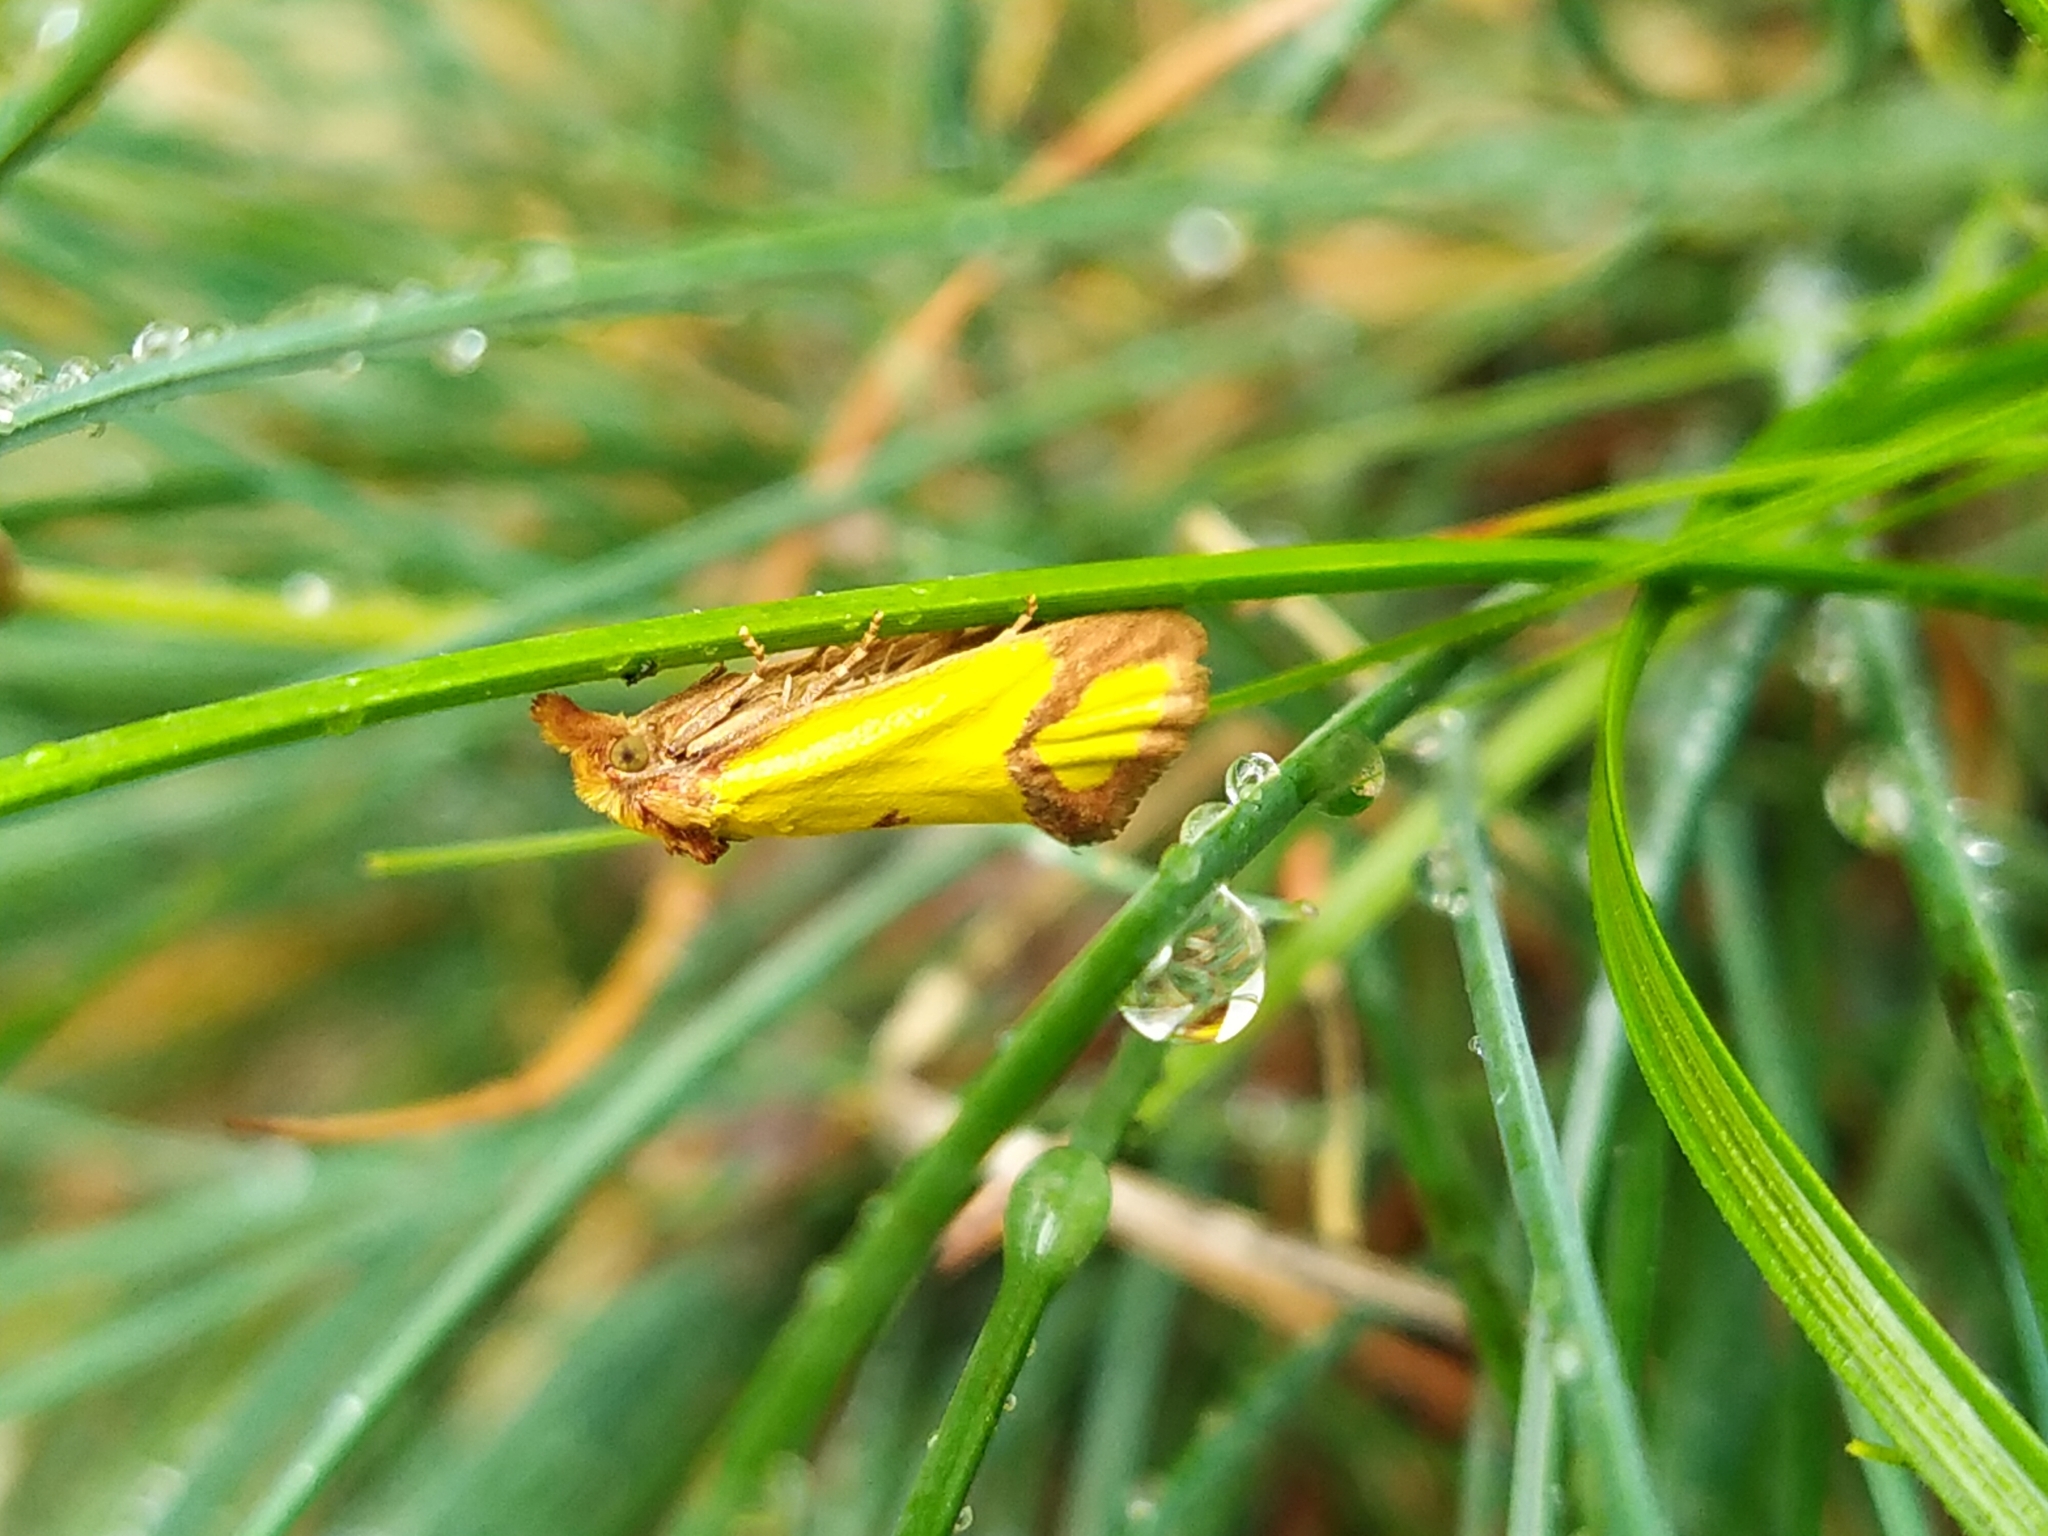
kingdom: Animalia
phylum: Arthropoda
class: Insecta
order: Lepidoptera
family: Tortricidae
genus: Agapeta
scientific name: Agapeta zoegana
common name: Sulfur knapweed root moth
